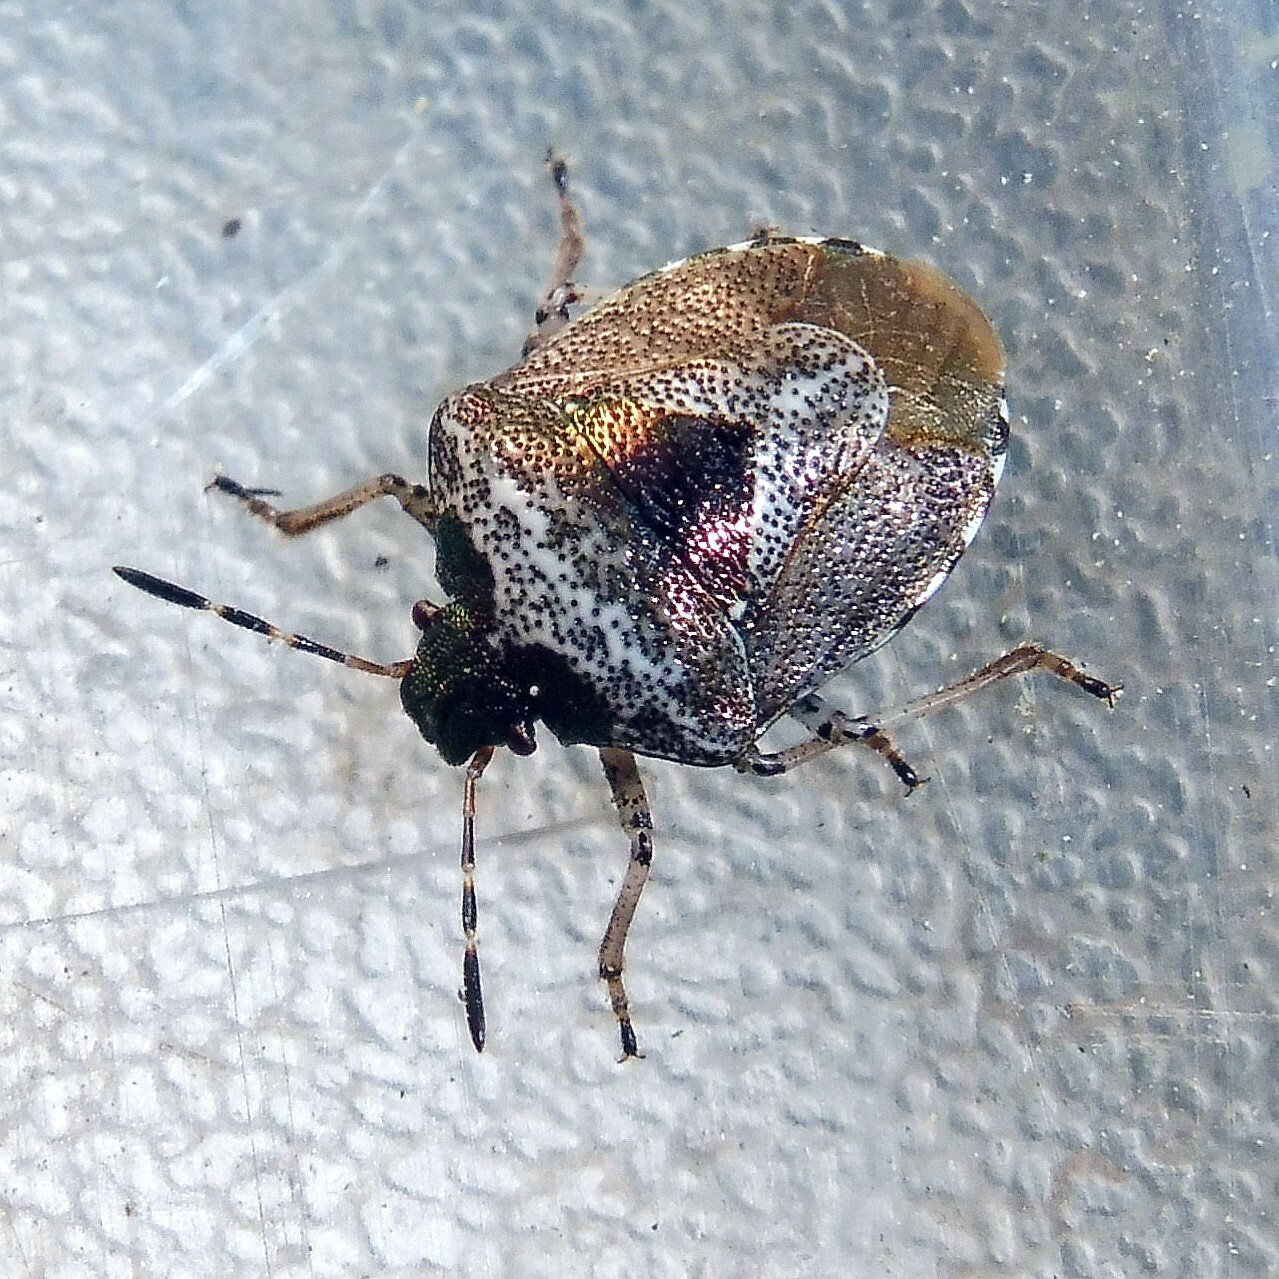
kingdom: Animalia
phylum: Arthropoda
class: Insecta
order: Hemiptera
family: Pentatomidae
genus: Eysarcoris
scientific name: Eysarcoris venustissimus
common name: Woundwort shieldbug
